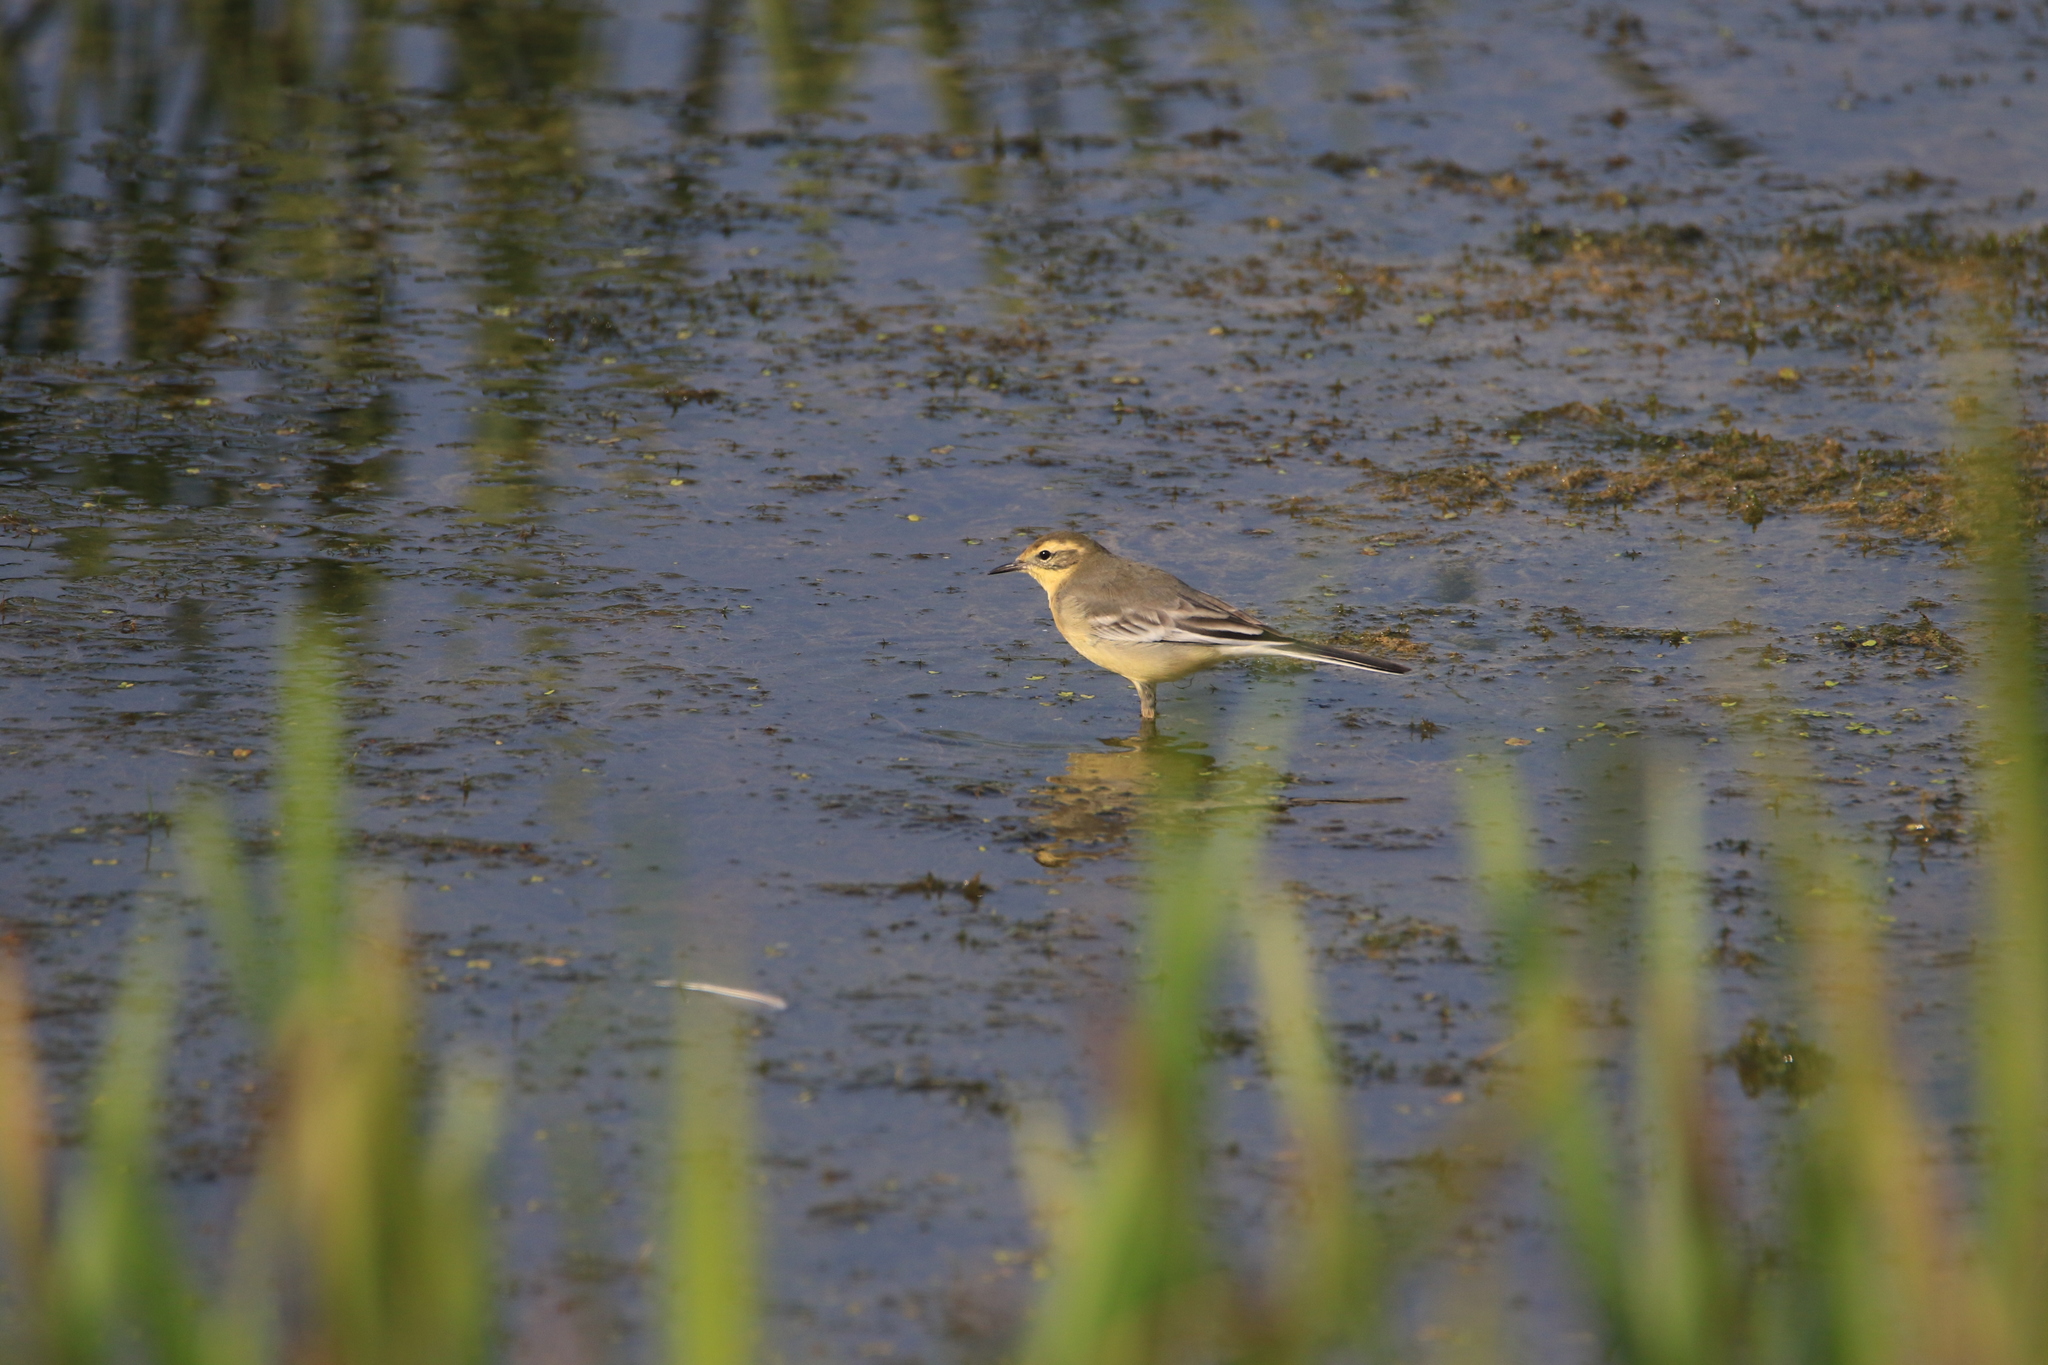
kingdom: Animalia
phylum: Chordata
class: Aves
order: Passeriformes
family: Motacillidae
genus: Motacilla
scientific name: Motacilla citreola
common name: Citrine wagtail
